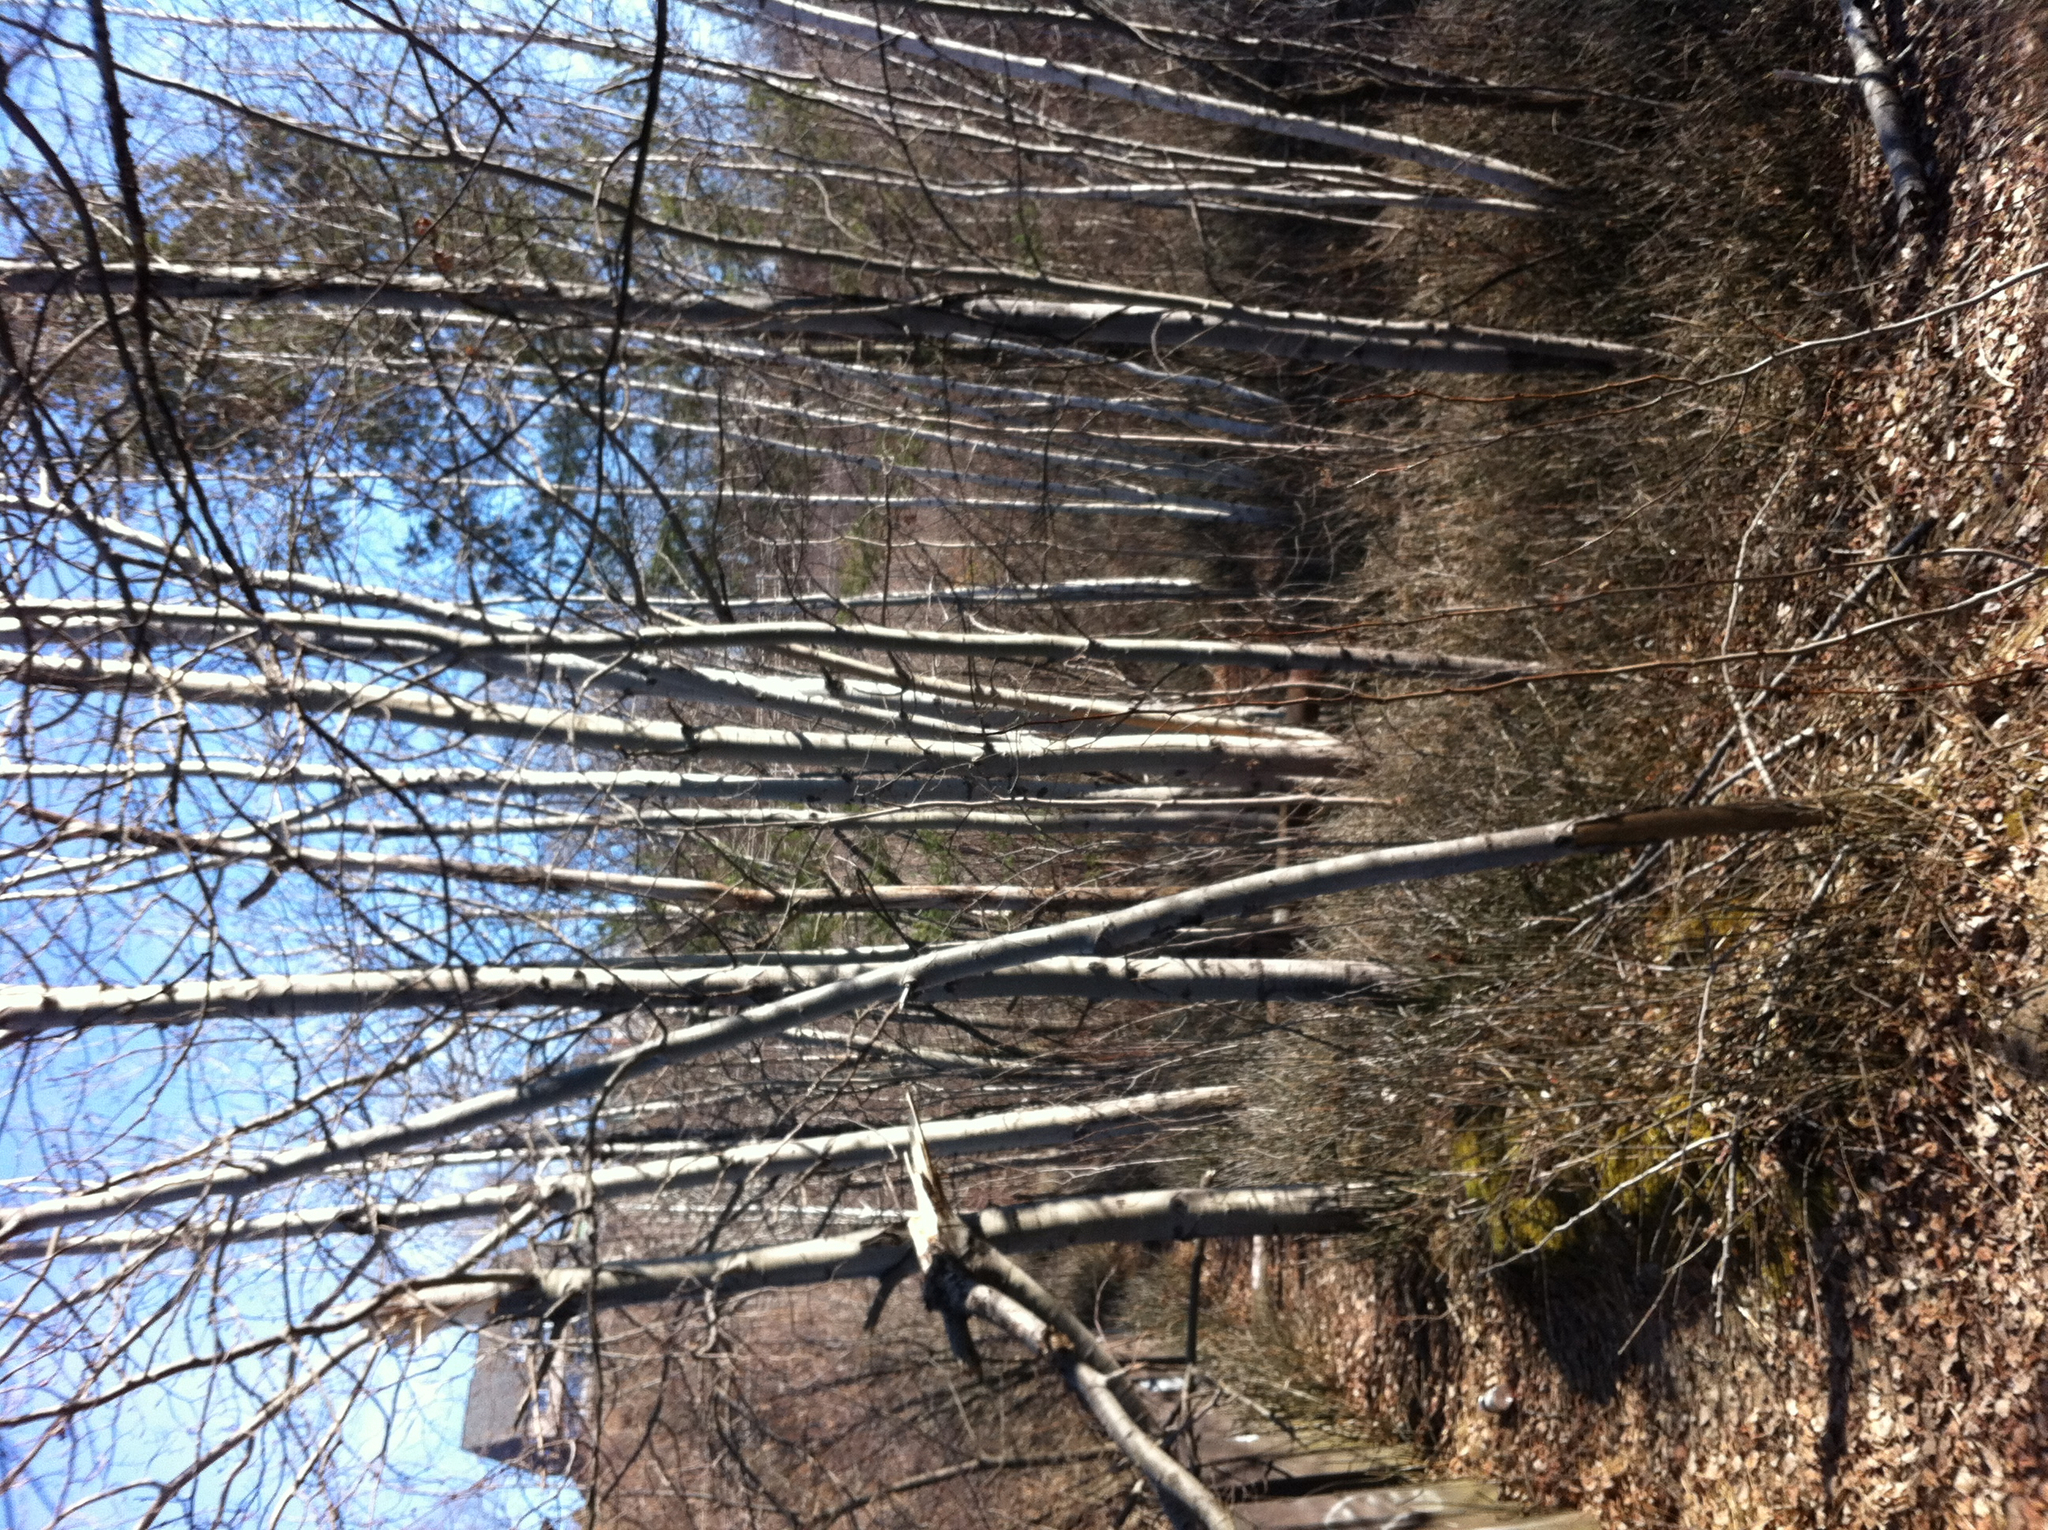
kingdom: Plantae
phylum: Tracheophyta
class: Magnoliopsida
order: Malpighiales
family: Salicaceae
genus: Populus
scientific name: Populus tremuloides
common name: Quaking aspen
